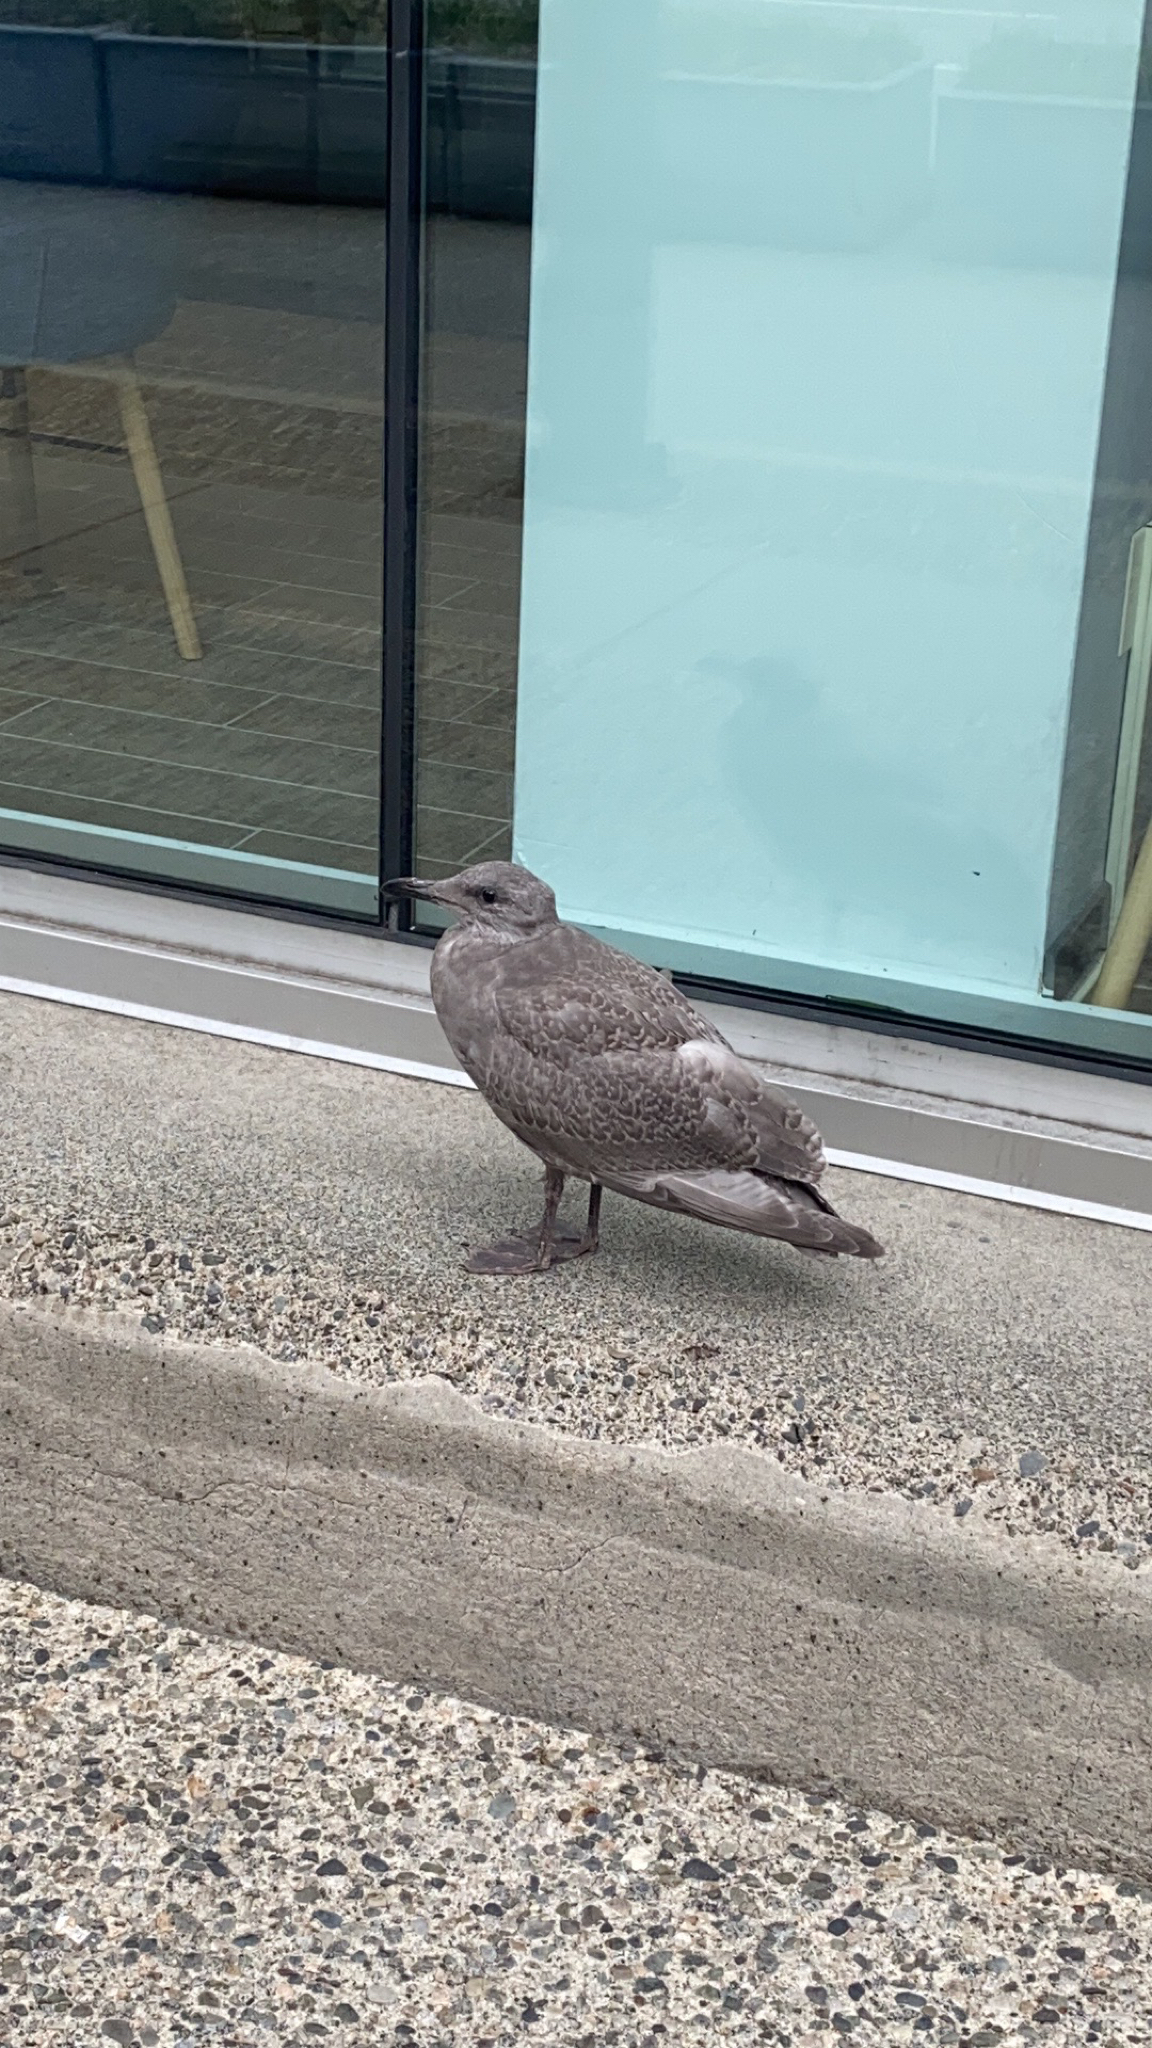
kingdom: Animalia
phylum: Chordata
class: Aves
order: Charadriiformes
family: Laridae
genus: Larus
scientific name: Larus
